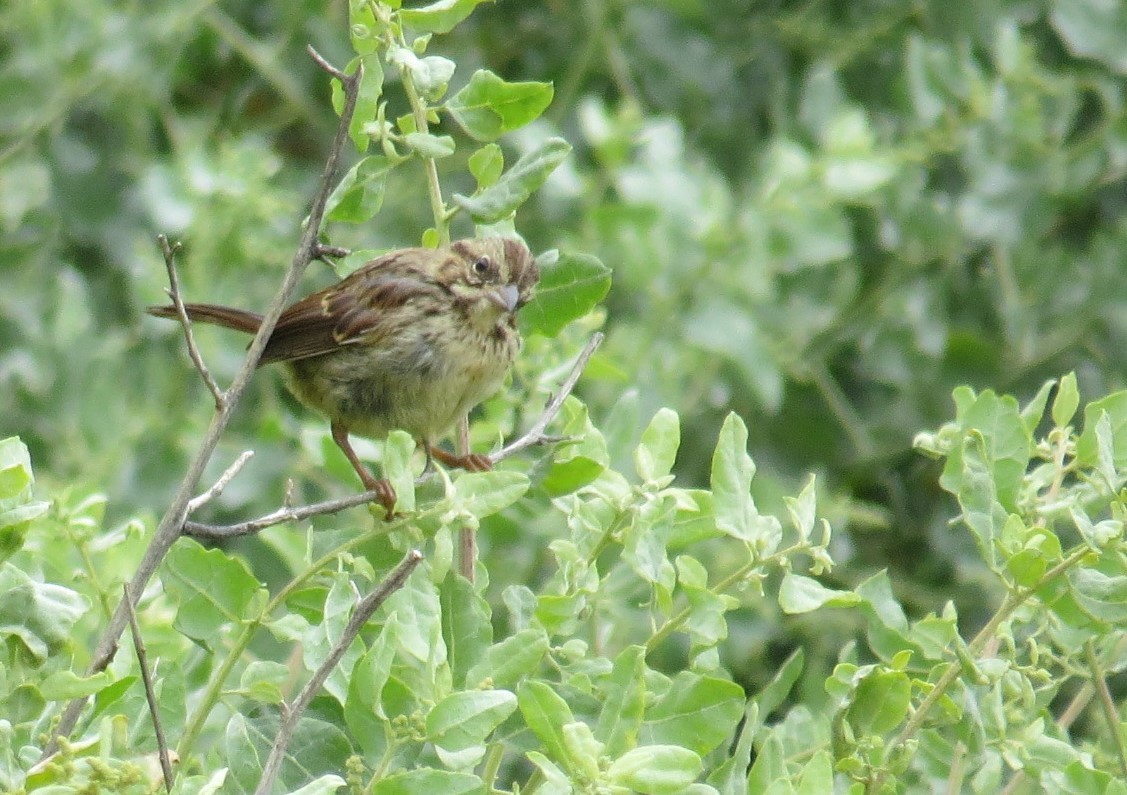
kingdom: Animalia
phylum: Chordata
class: Aves
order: Passeriformes
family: Passerellidae
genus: Melospiza
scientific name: Melospiza melodia
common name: Song sparrow
